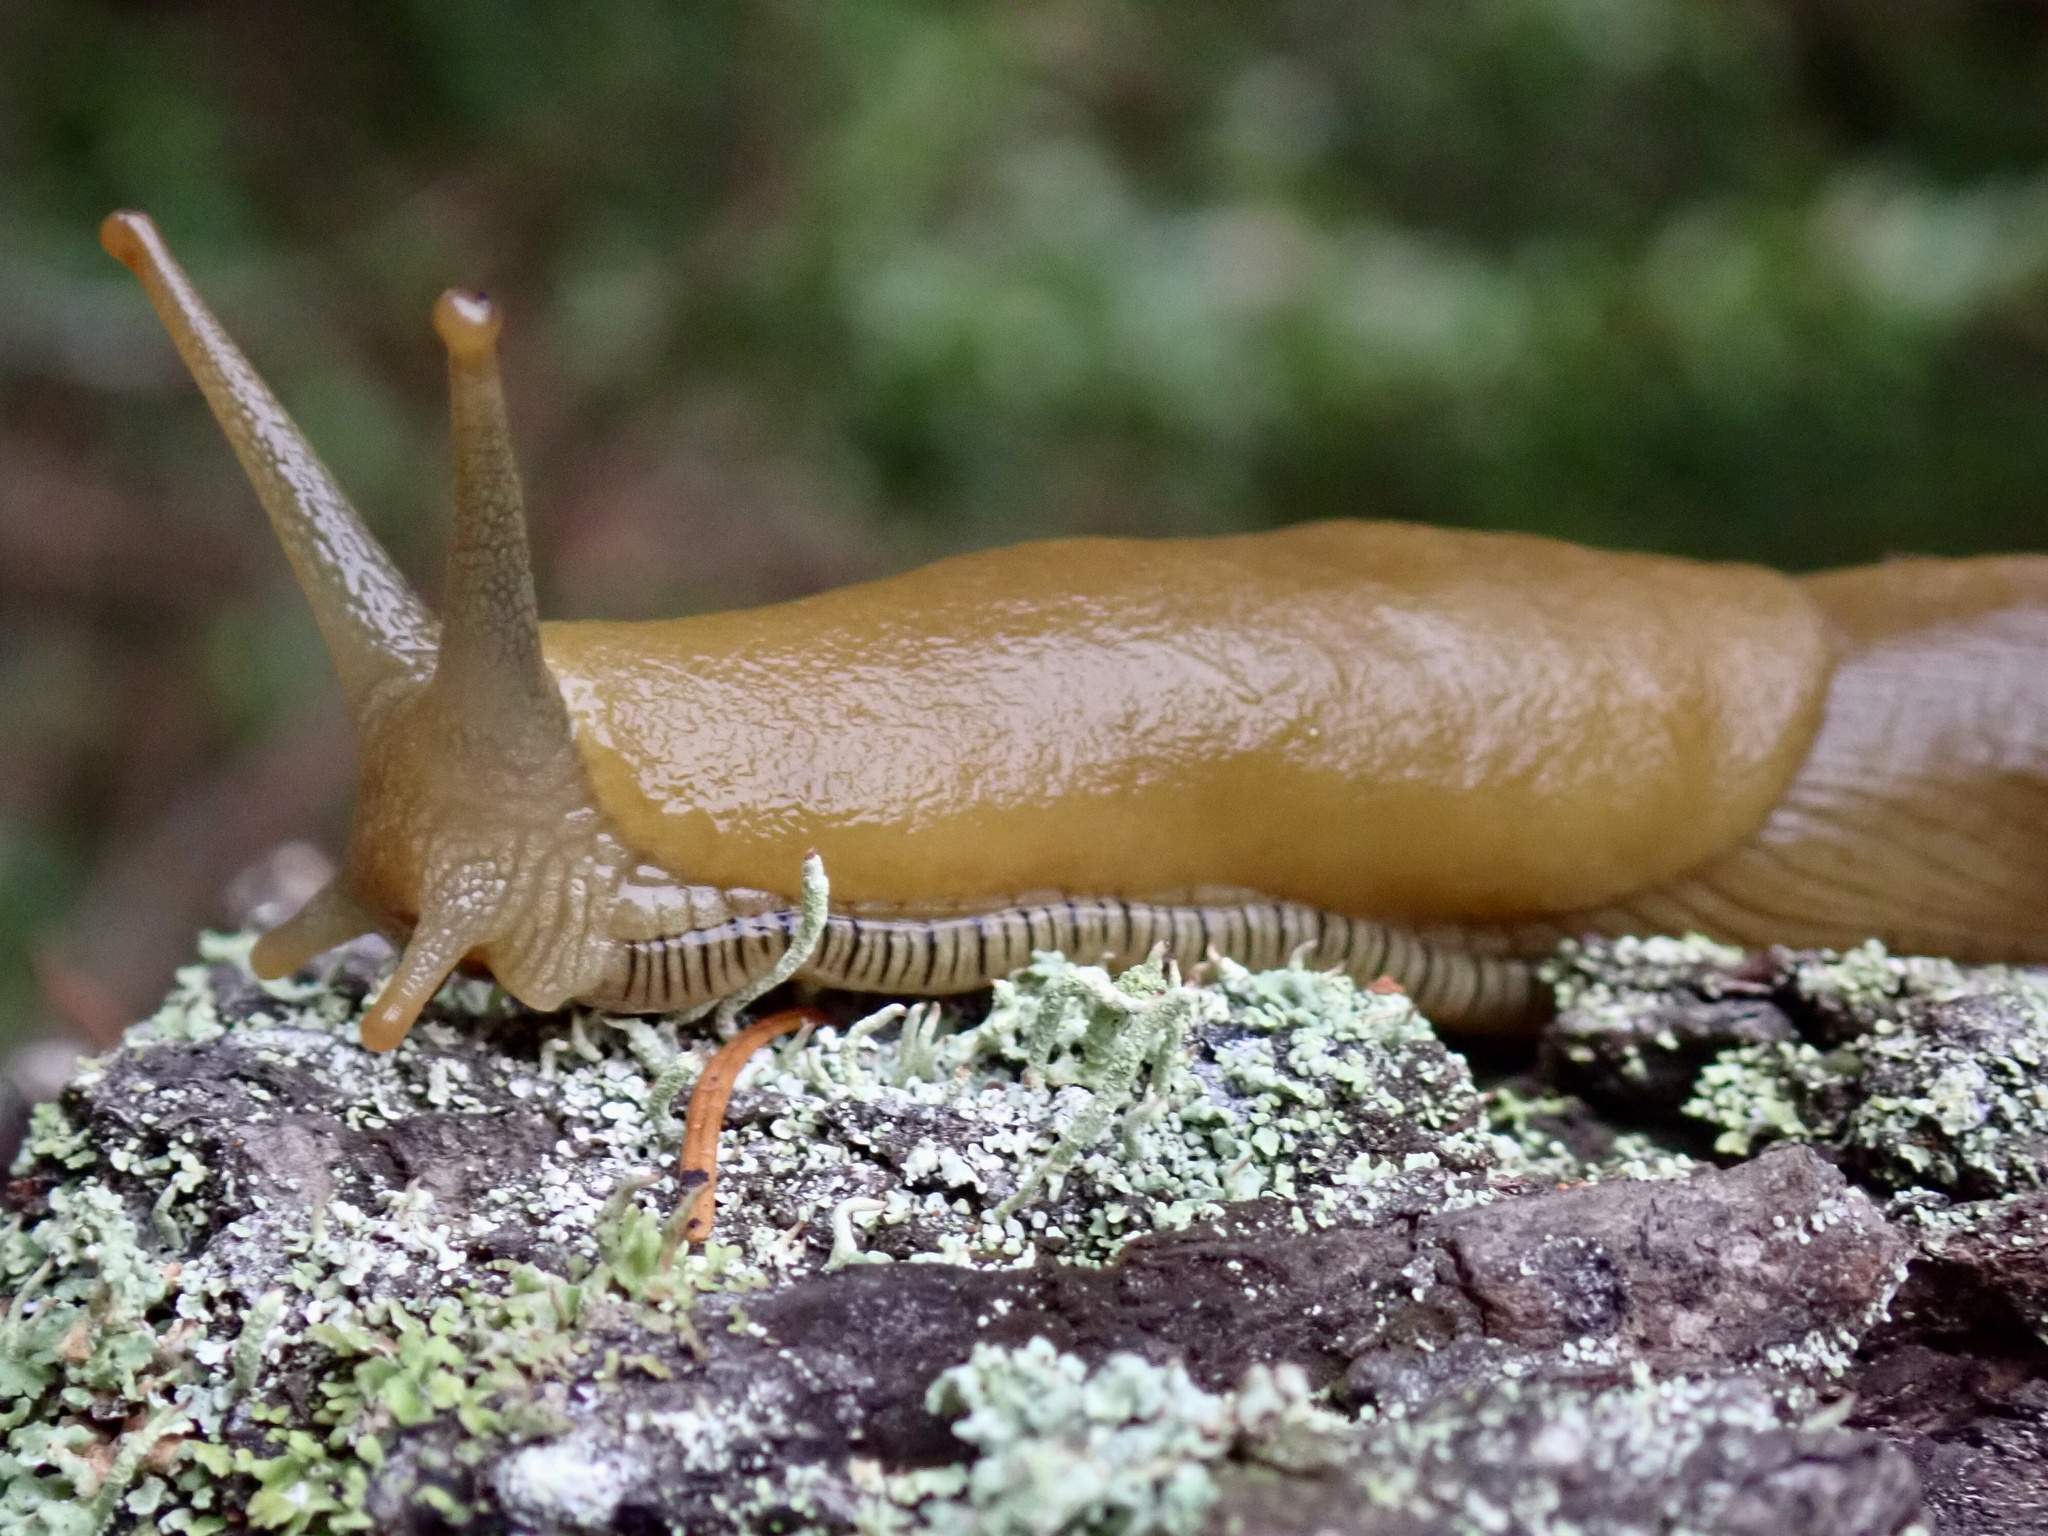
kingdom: Animalia
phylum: Mollusca
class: Gastropoda
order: Stylommatophora
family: Ariolimacidae
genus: Ariolimax
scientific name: Ariolimax buttoni
